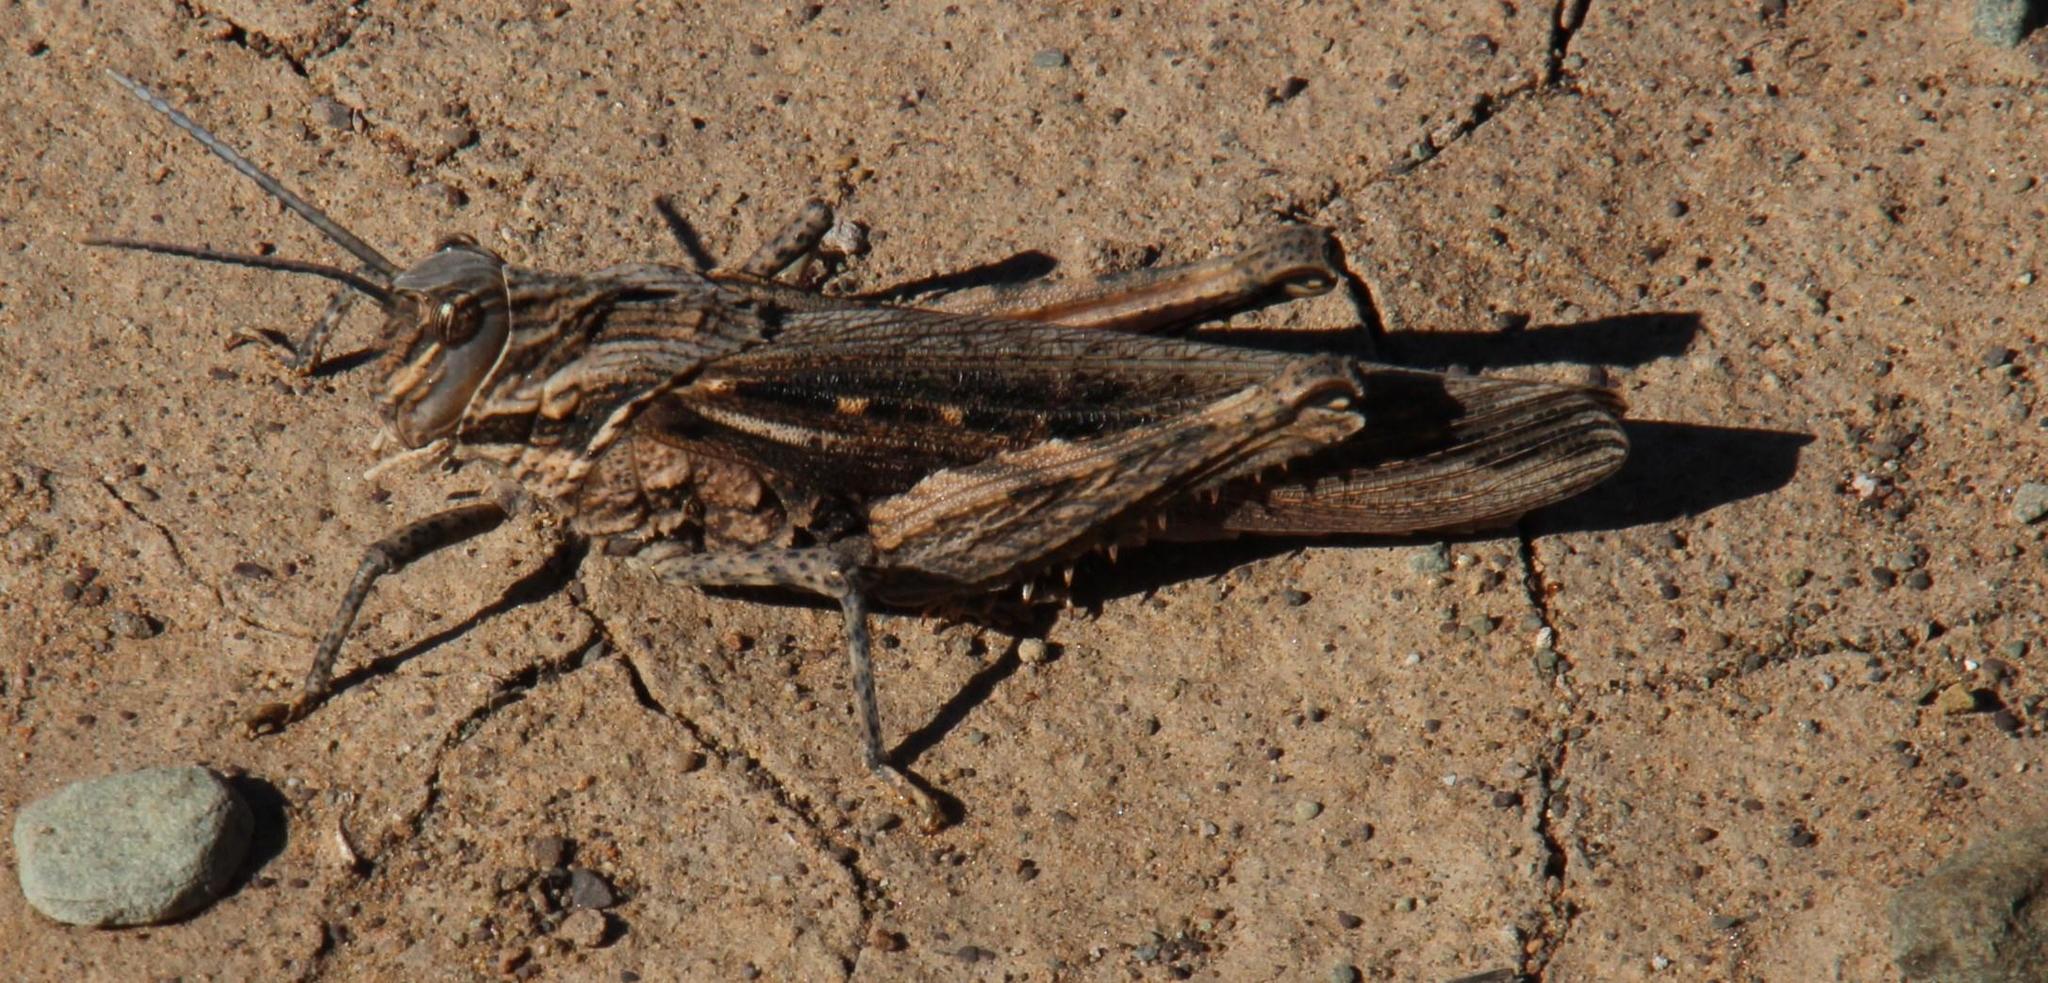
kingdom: Animalia
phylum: Arthropoda
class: Insecta
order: Orthoptera
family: Pamphagidae
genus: Adephagus
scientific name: Adephagus cristatus
